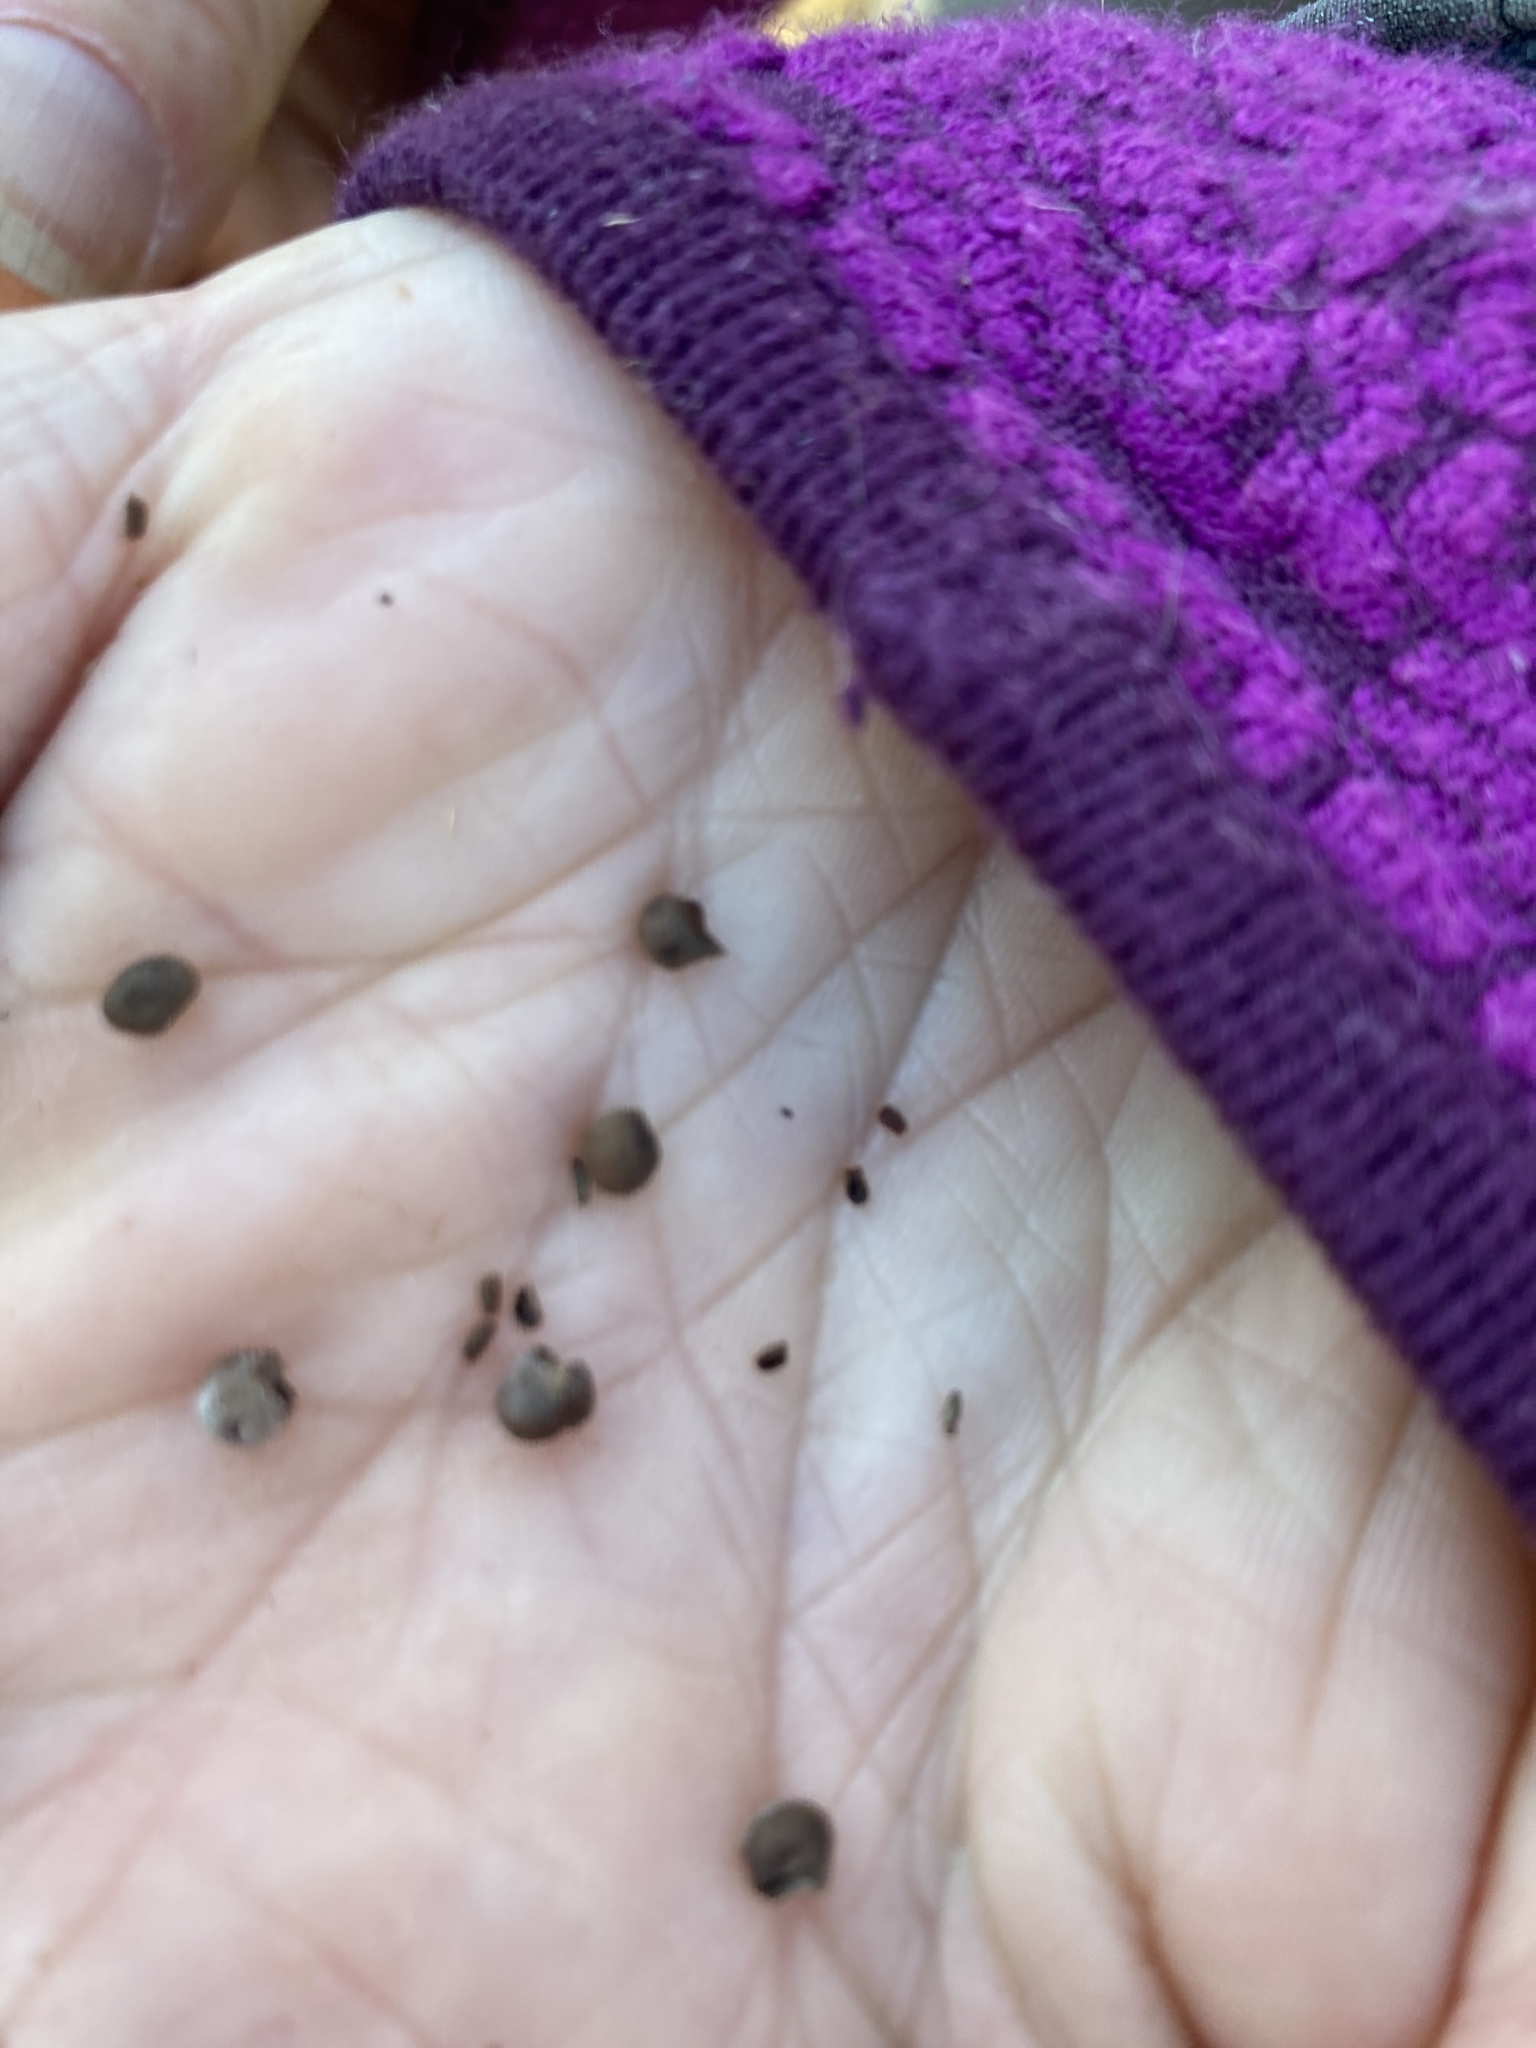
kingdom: Plantae
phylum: Tracheophyta
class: Magnoliopsida
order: Malvales
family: Malvaceae
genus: Hibiscus
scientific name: Hibiscus moscheutos
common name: Common rose-mallow
